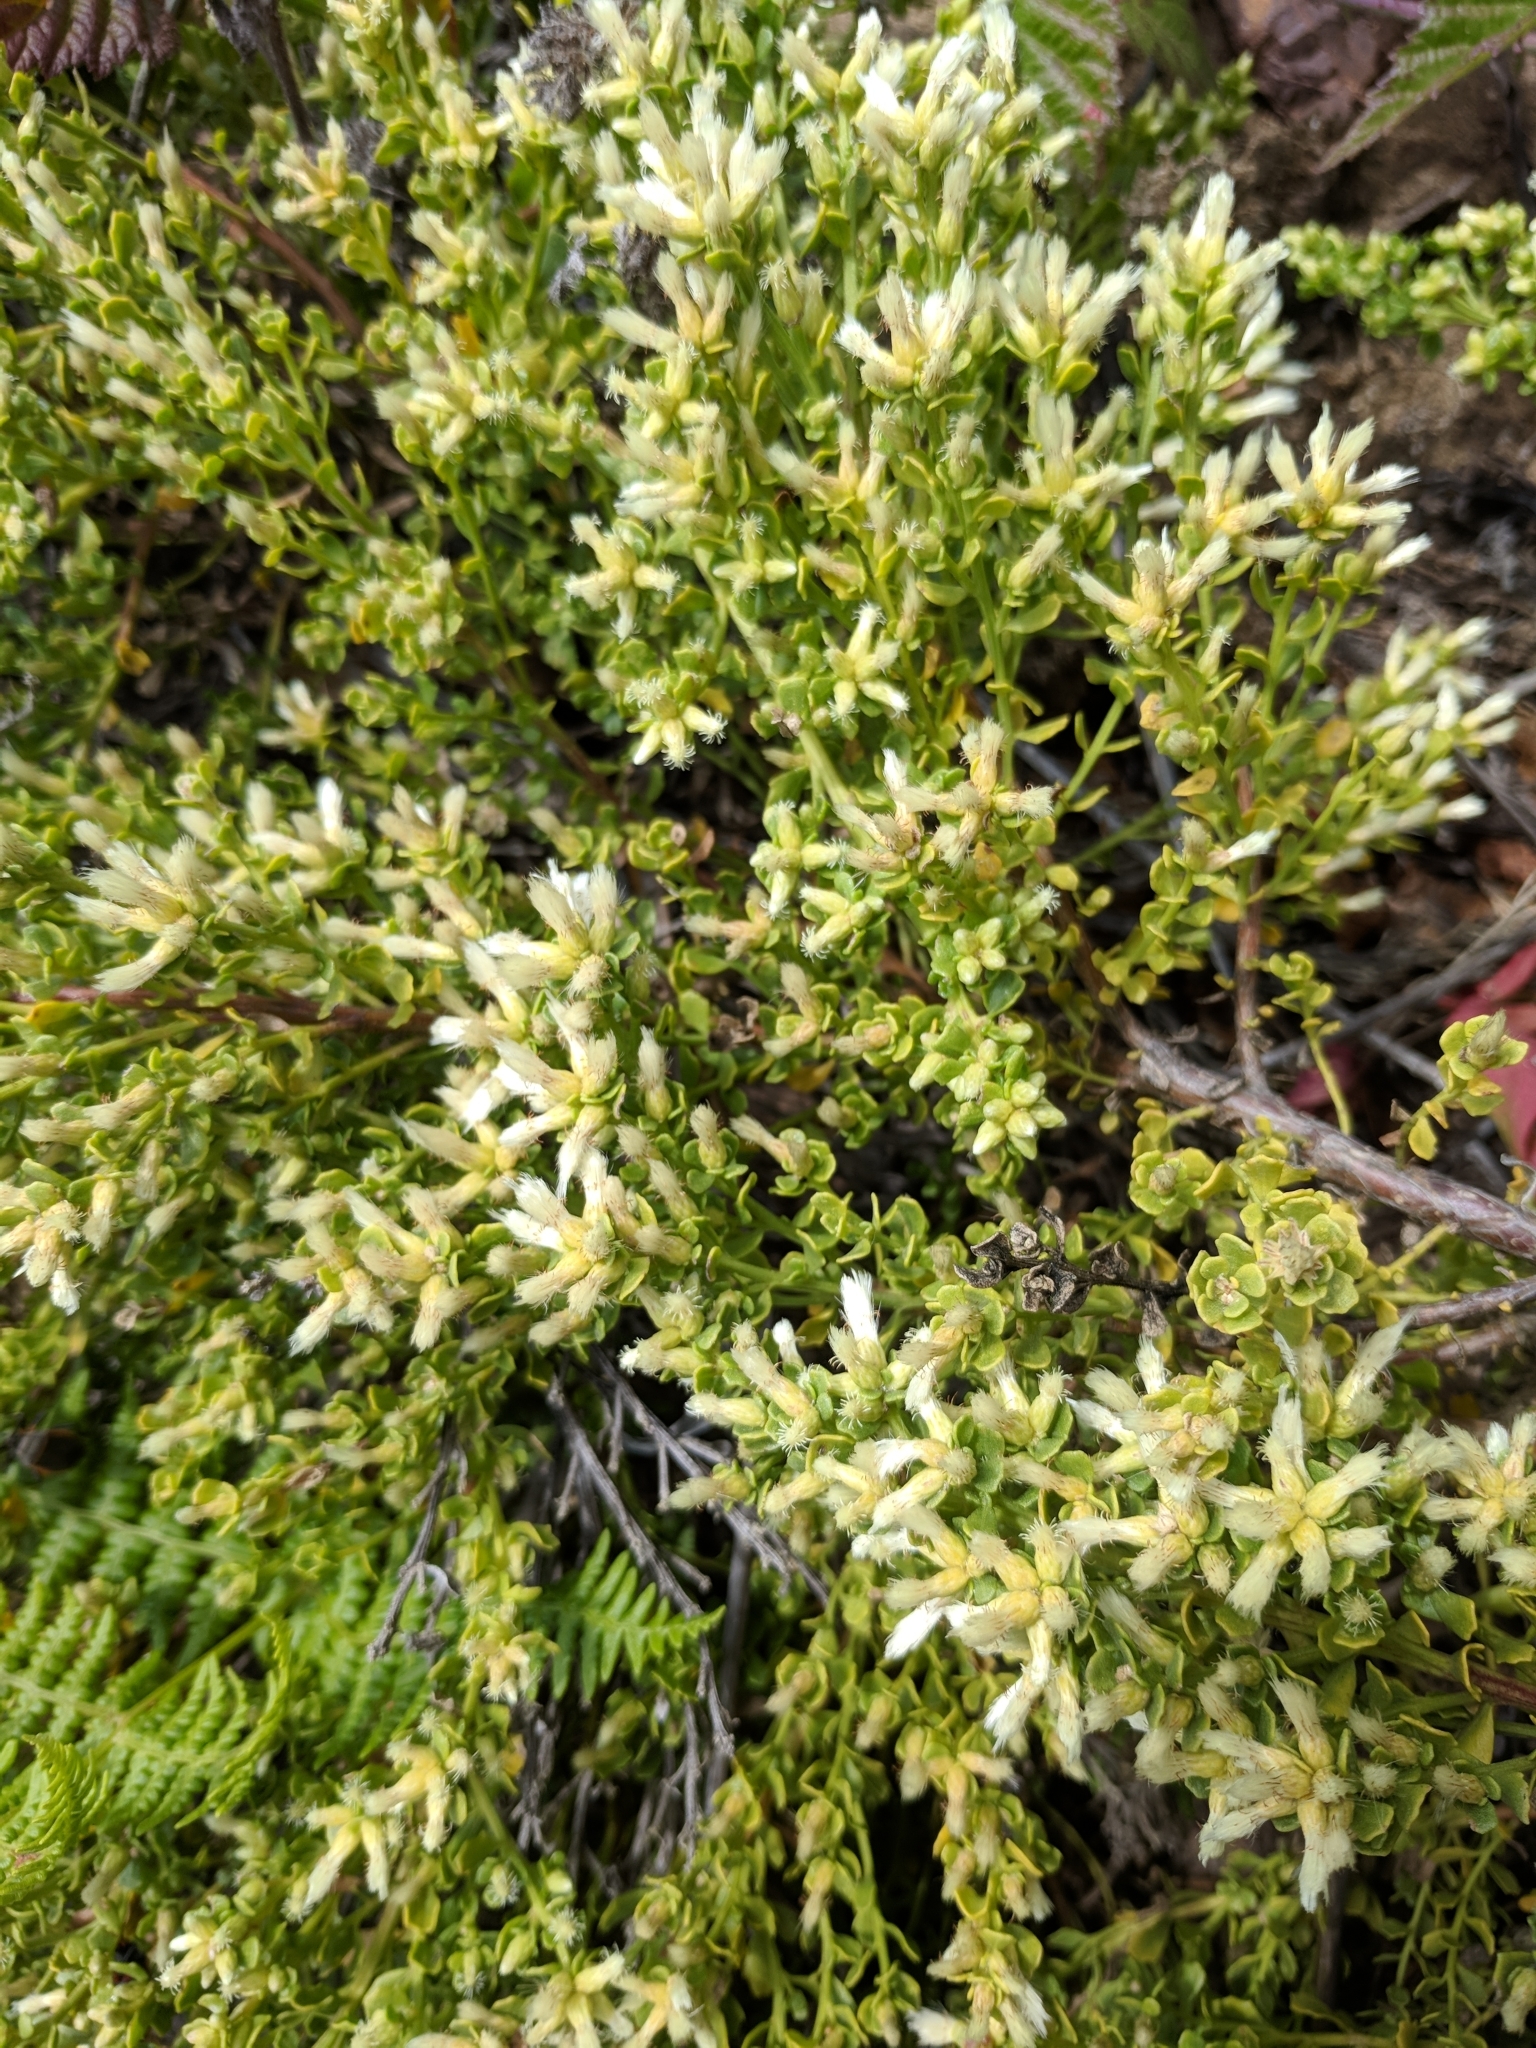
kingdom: Plantae
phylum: Tracheophyta
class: Magnoliopsida
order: Asterales
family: Asteraceae
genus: Baccharis
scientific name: Baccharis pilularis
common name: Coyotebrush
